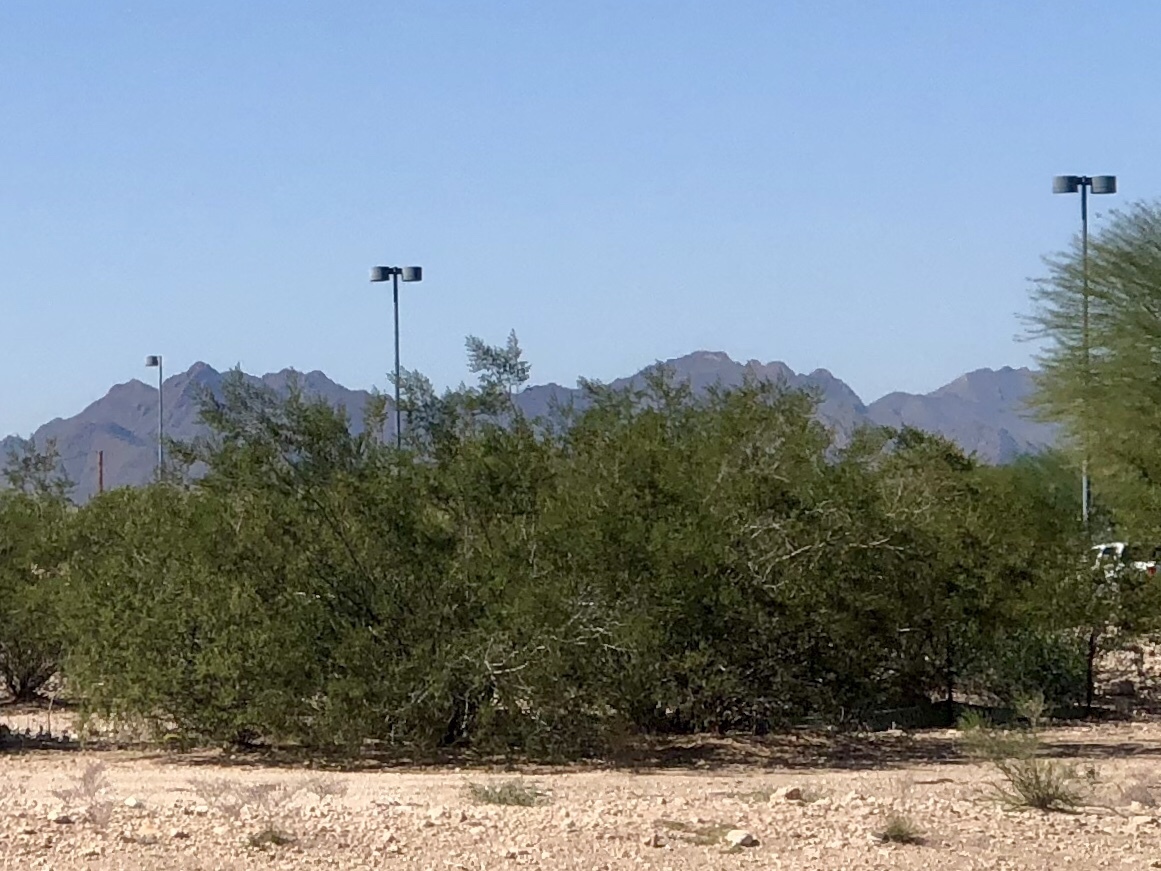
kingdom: Plantae
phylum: Tracheophyta
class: Magnoliopsida
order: Zygophyllales
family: Zygophyllaceae
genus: Larrea
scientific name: Larrea tridentata
